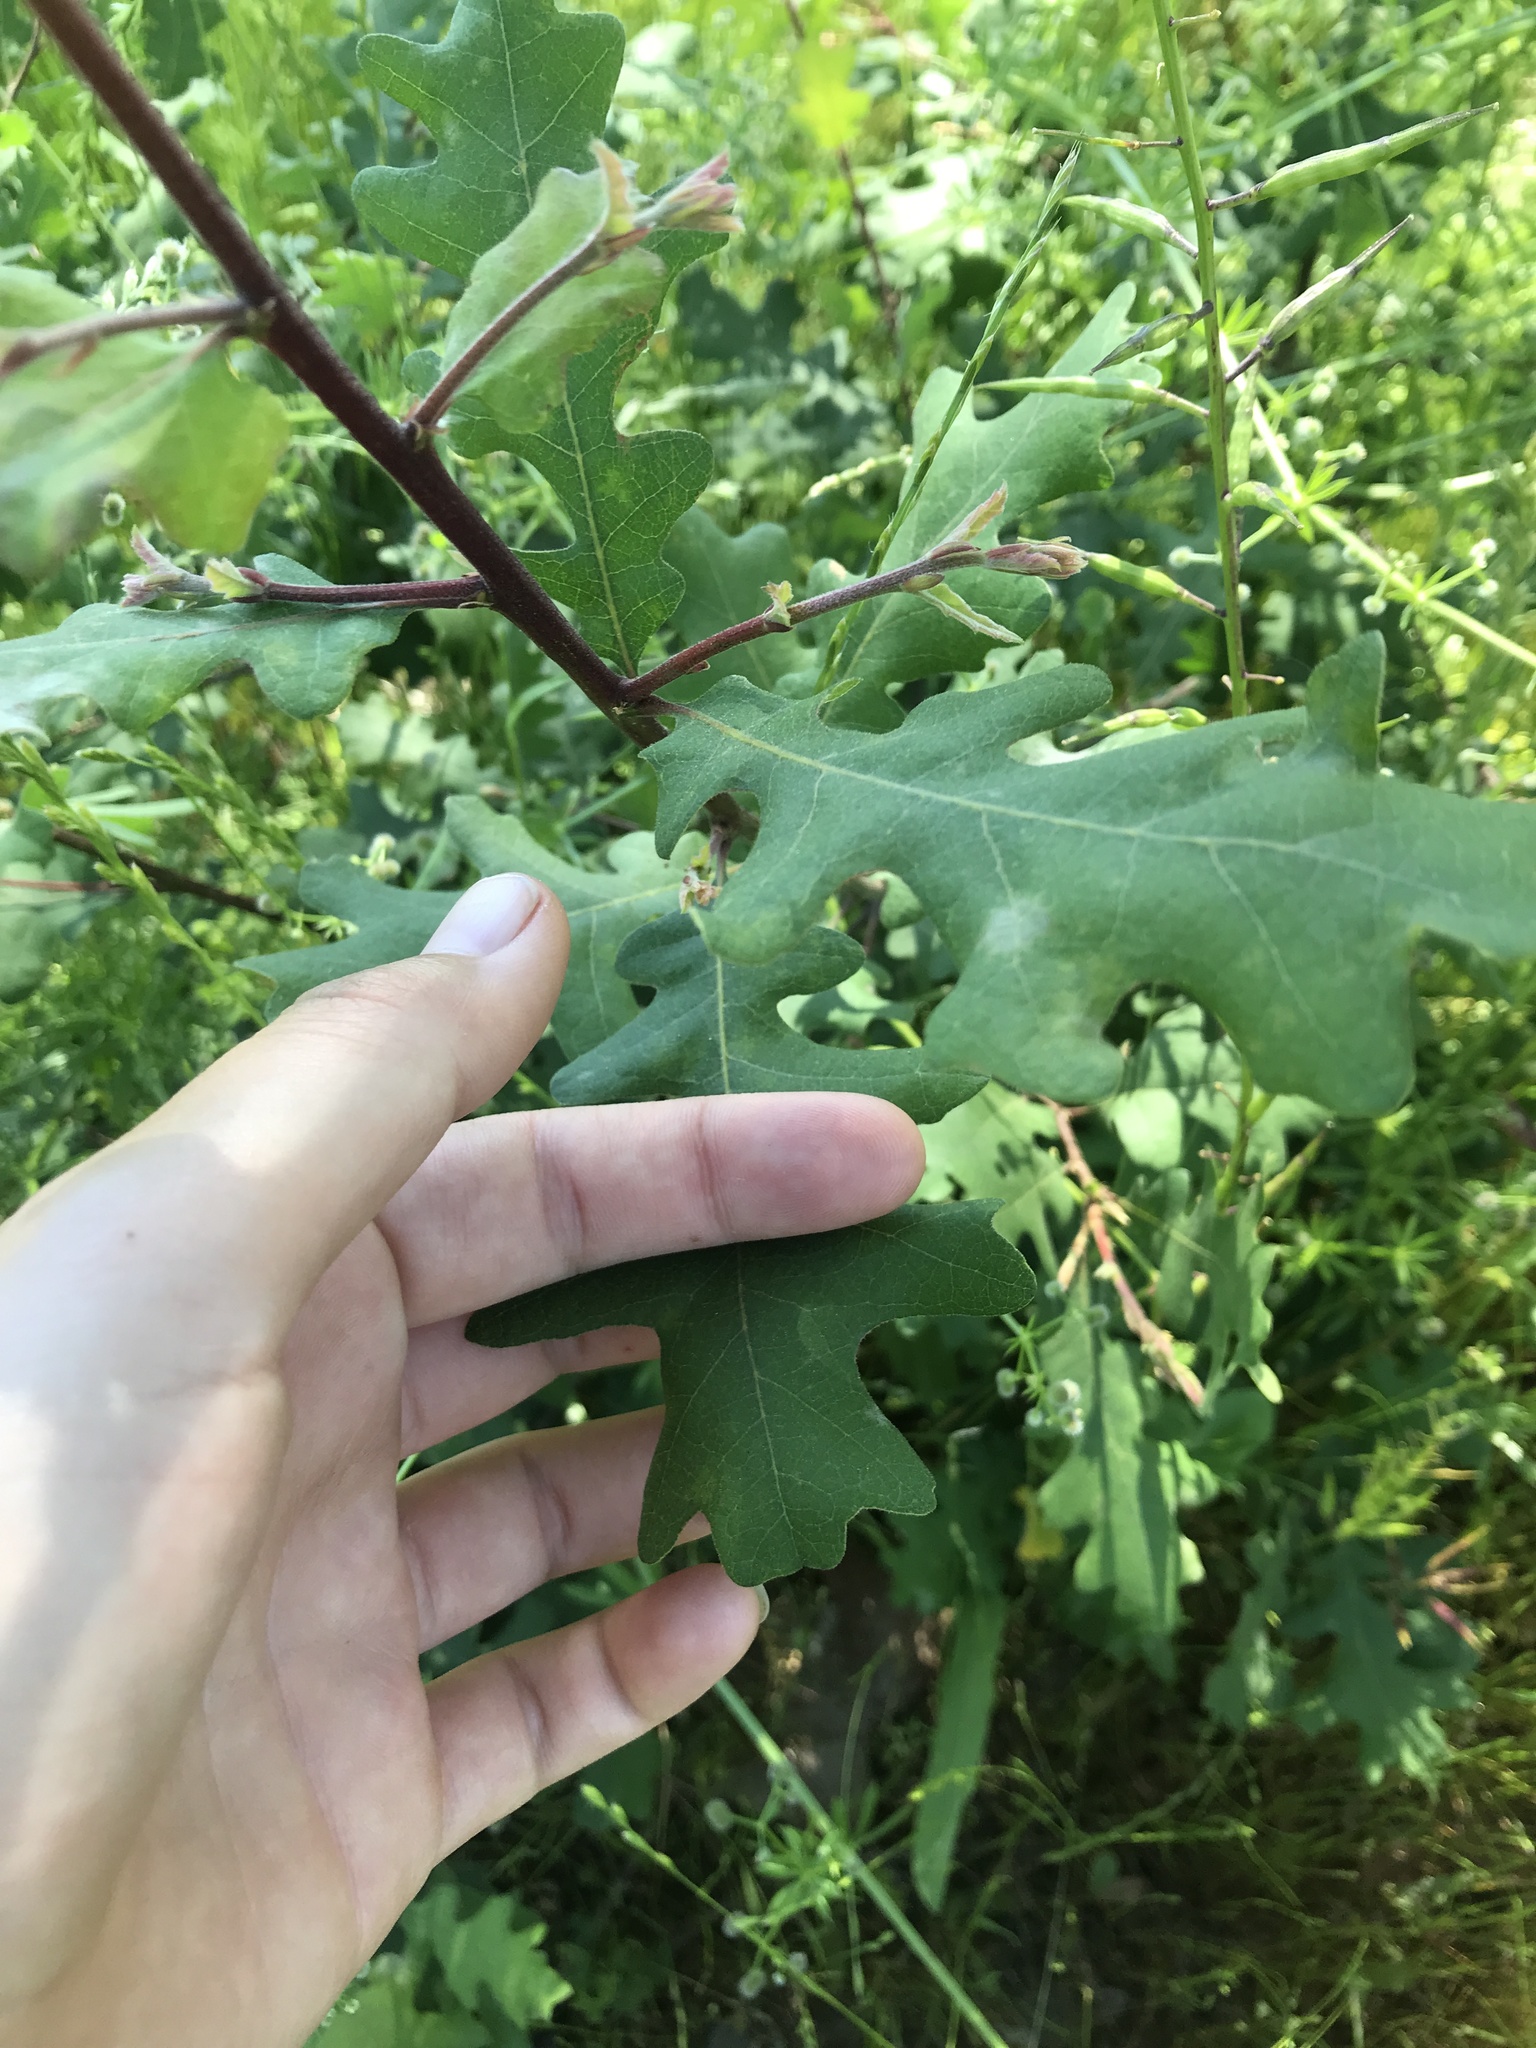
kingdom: Plantae
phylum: Tracheophyta
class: Magnoliopsida
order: Fagales
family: Fagaceae
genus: Quercus
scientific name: Quercus lobata
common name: Valley oak
